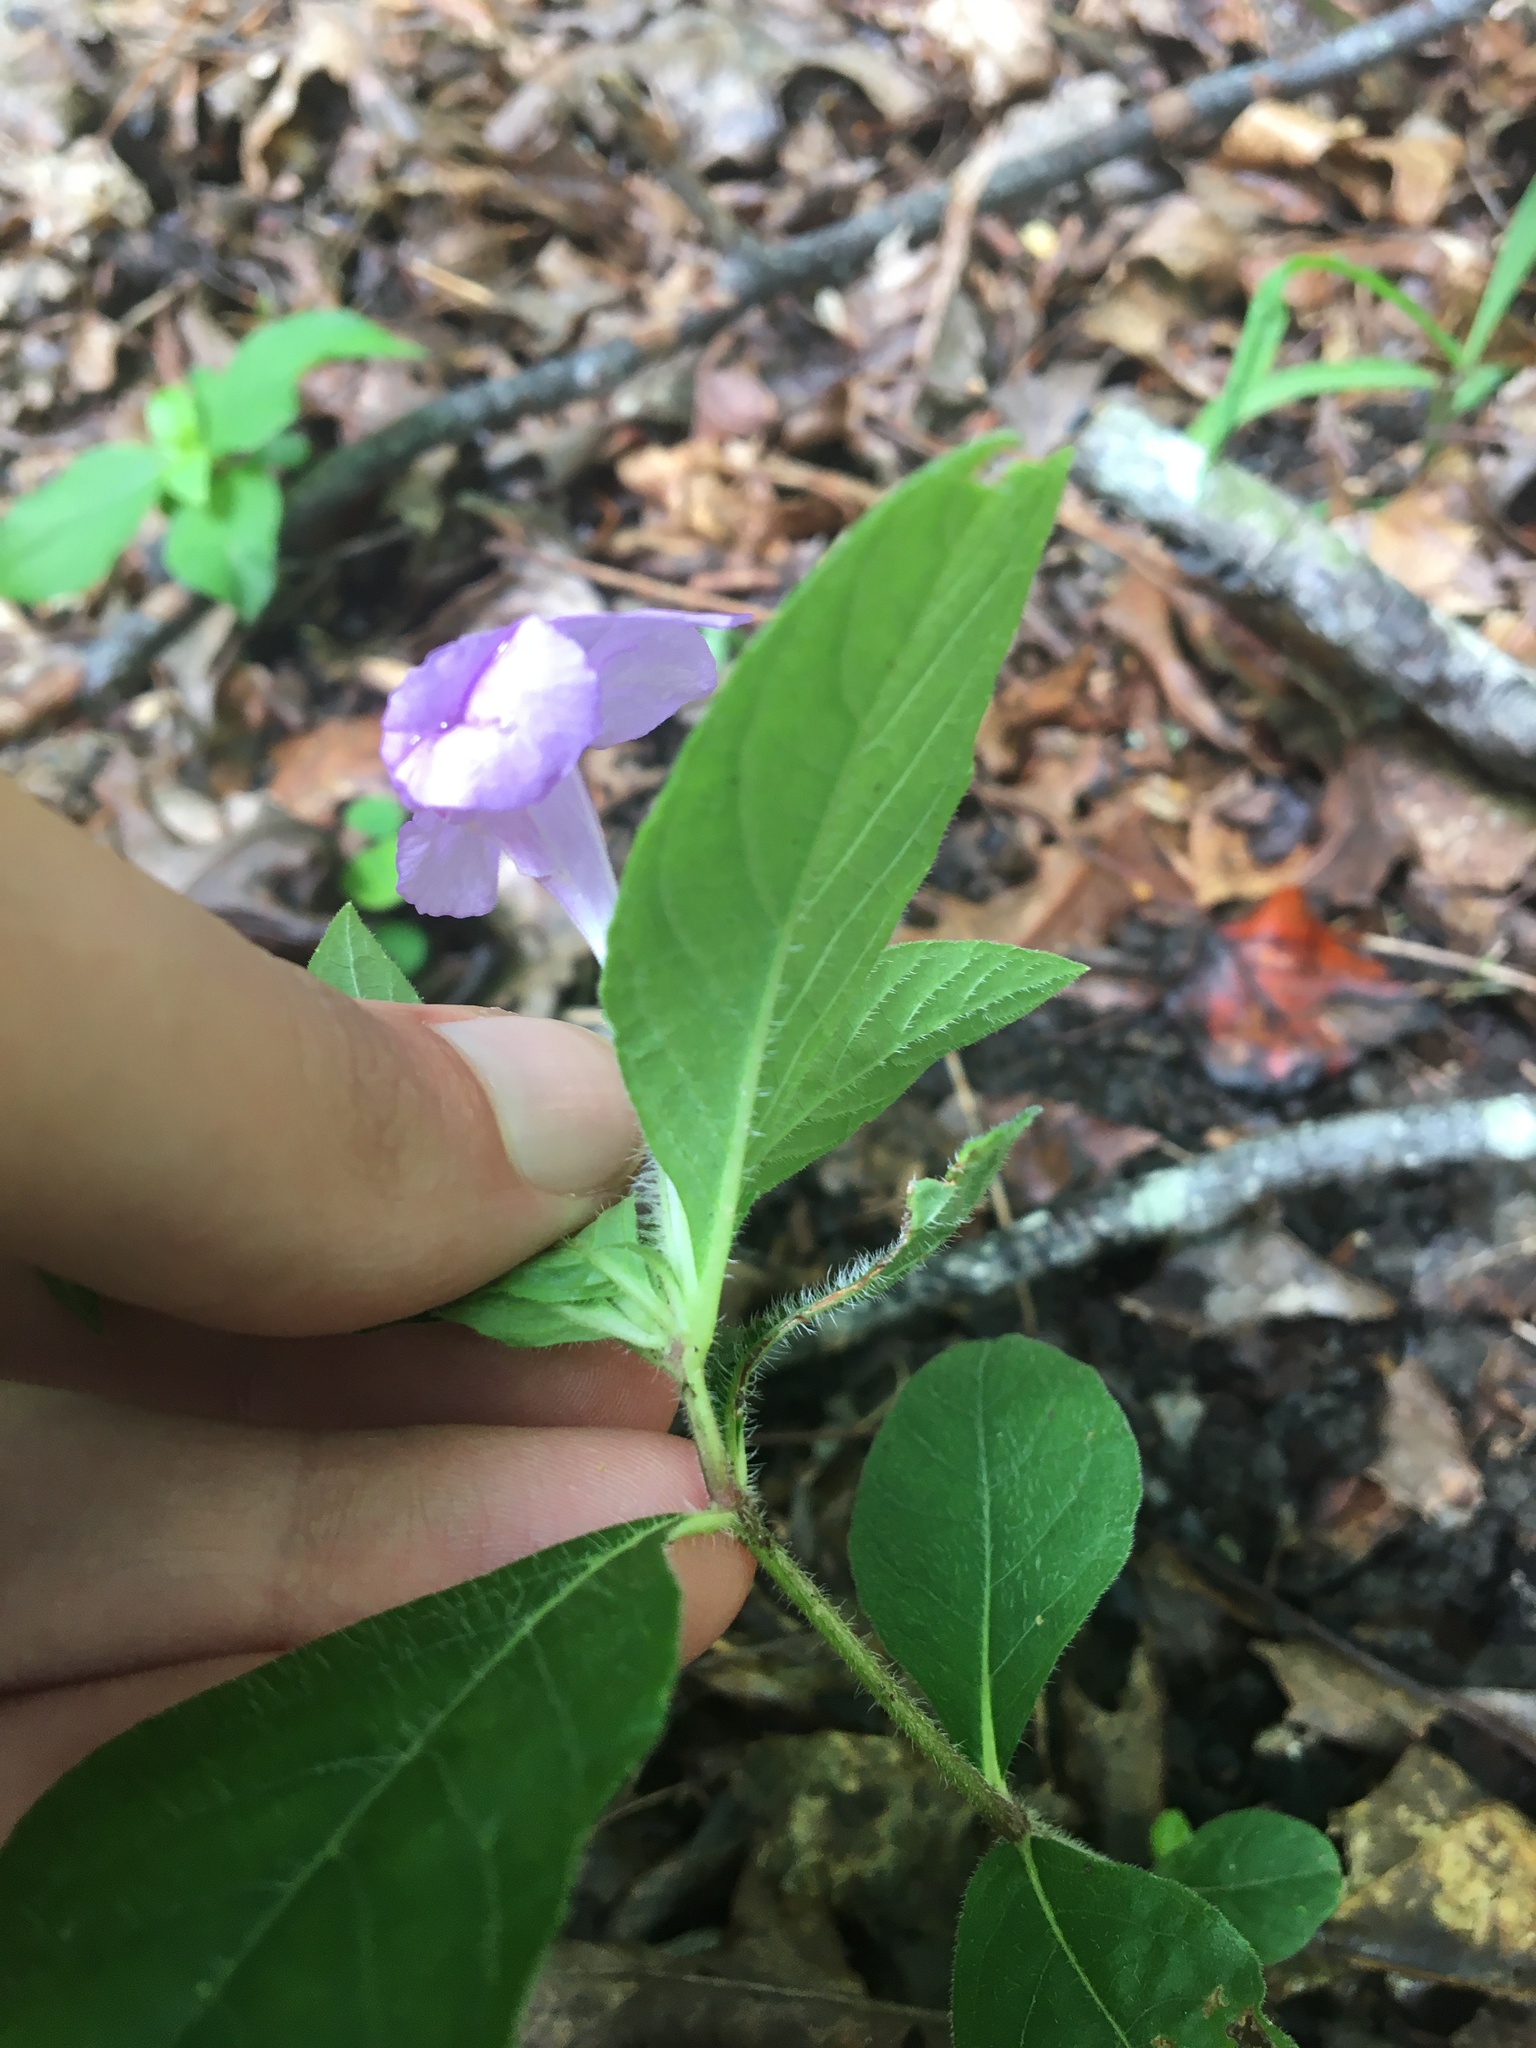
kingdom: Plantae
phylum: Tracheophyta
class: Magnoliopsida
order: Lamiales
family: Acanthaceae
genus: Ruellia
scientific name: Ruellia caroliniensis
